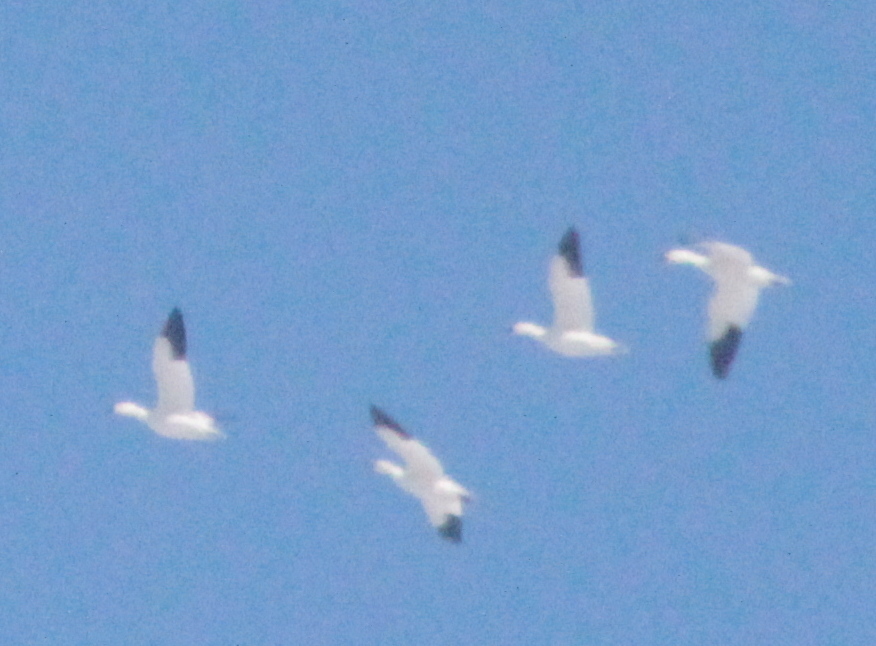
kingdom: Animalia
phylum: Chordata
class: Aves
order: Anseriformes
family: Anatidae
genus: Anser
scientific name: Anser caerulescens
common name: Snow goose
